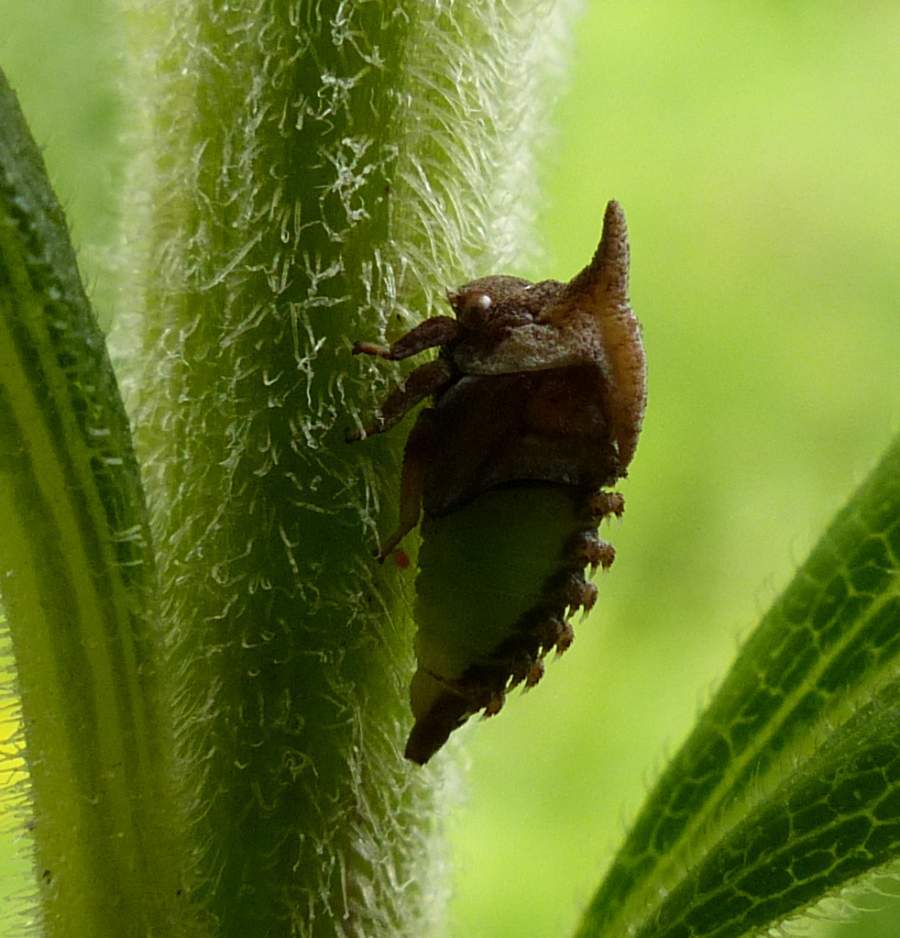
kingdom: Animalia
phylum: Arthropoda
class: Insecta
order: Hemiptera
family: Membracidae
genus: Enchenopa
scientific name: Enchenopa latipes
